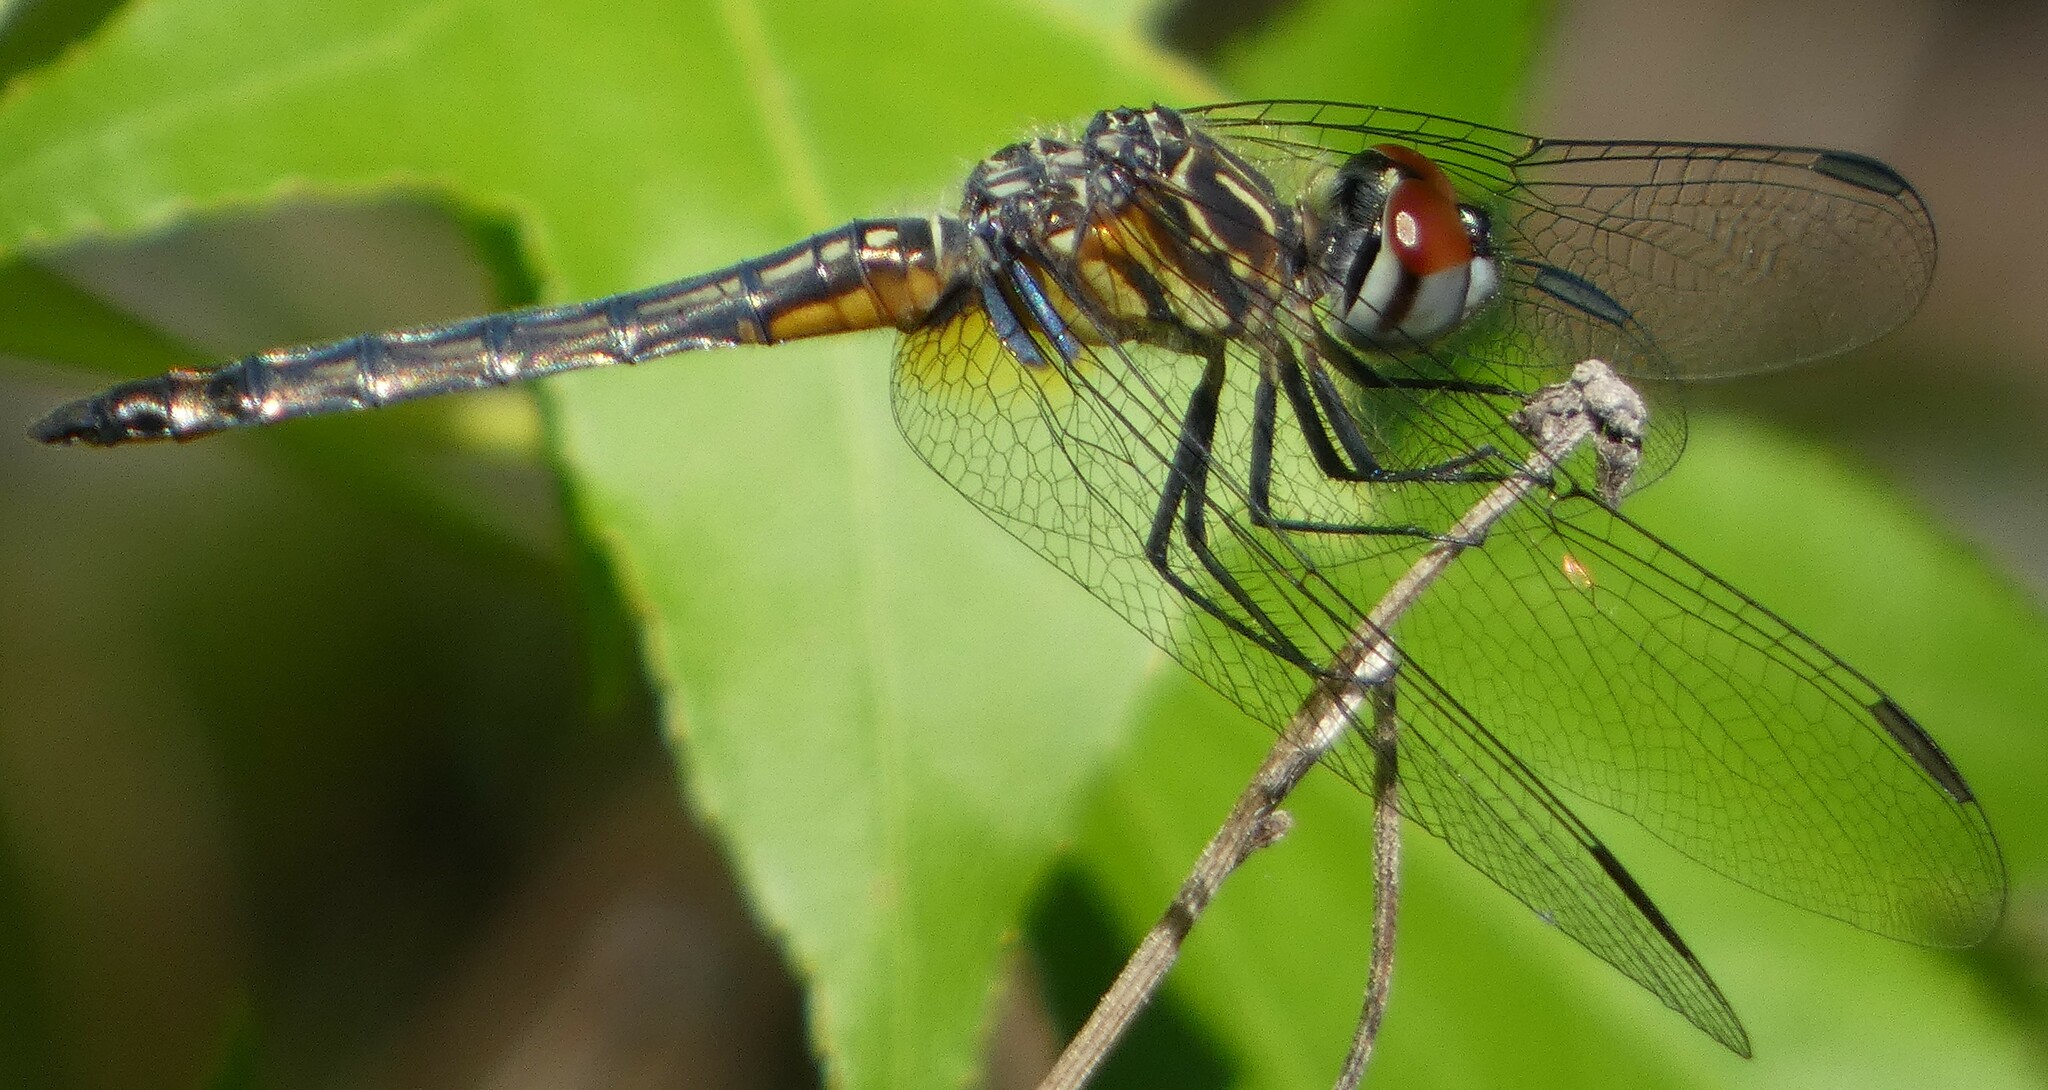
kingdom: Animalia
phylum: Arthropoda
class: Insecta
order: Odonata
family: Libellulidae
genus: Pachydiplax
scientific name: Pachydiplax longipennis
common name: Blue dasher
